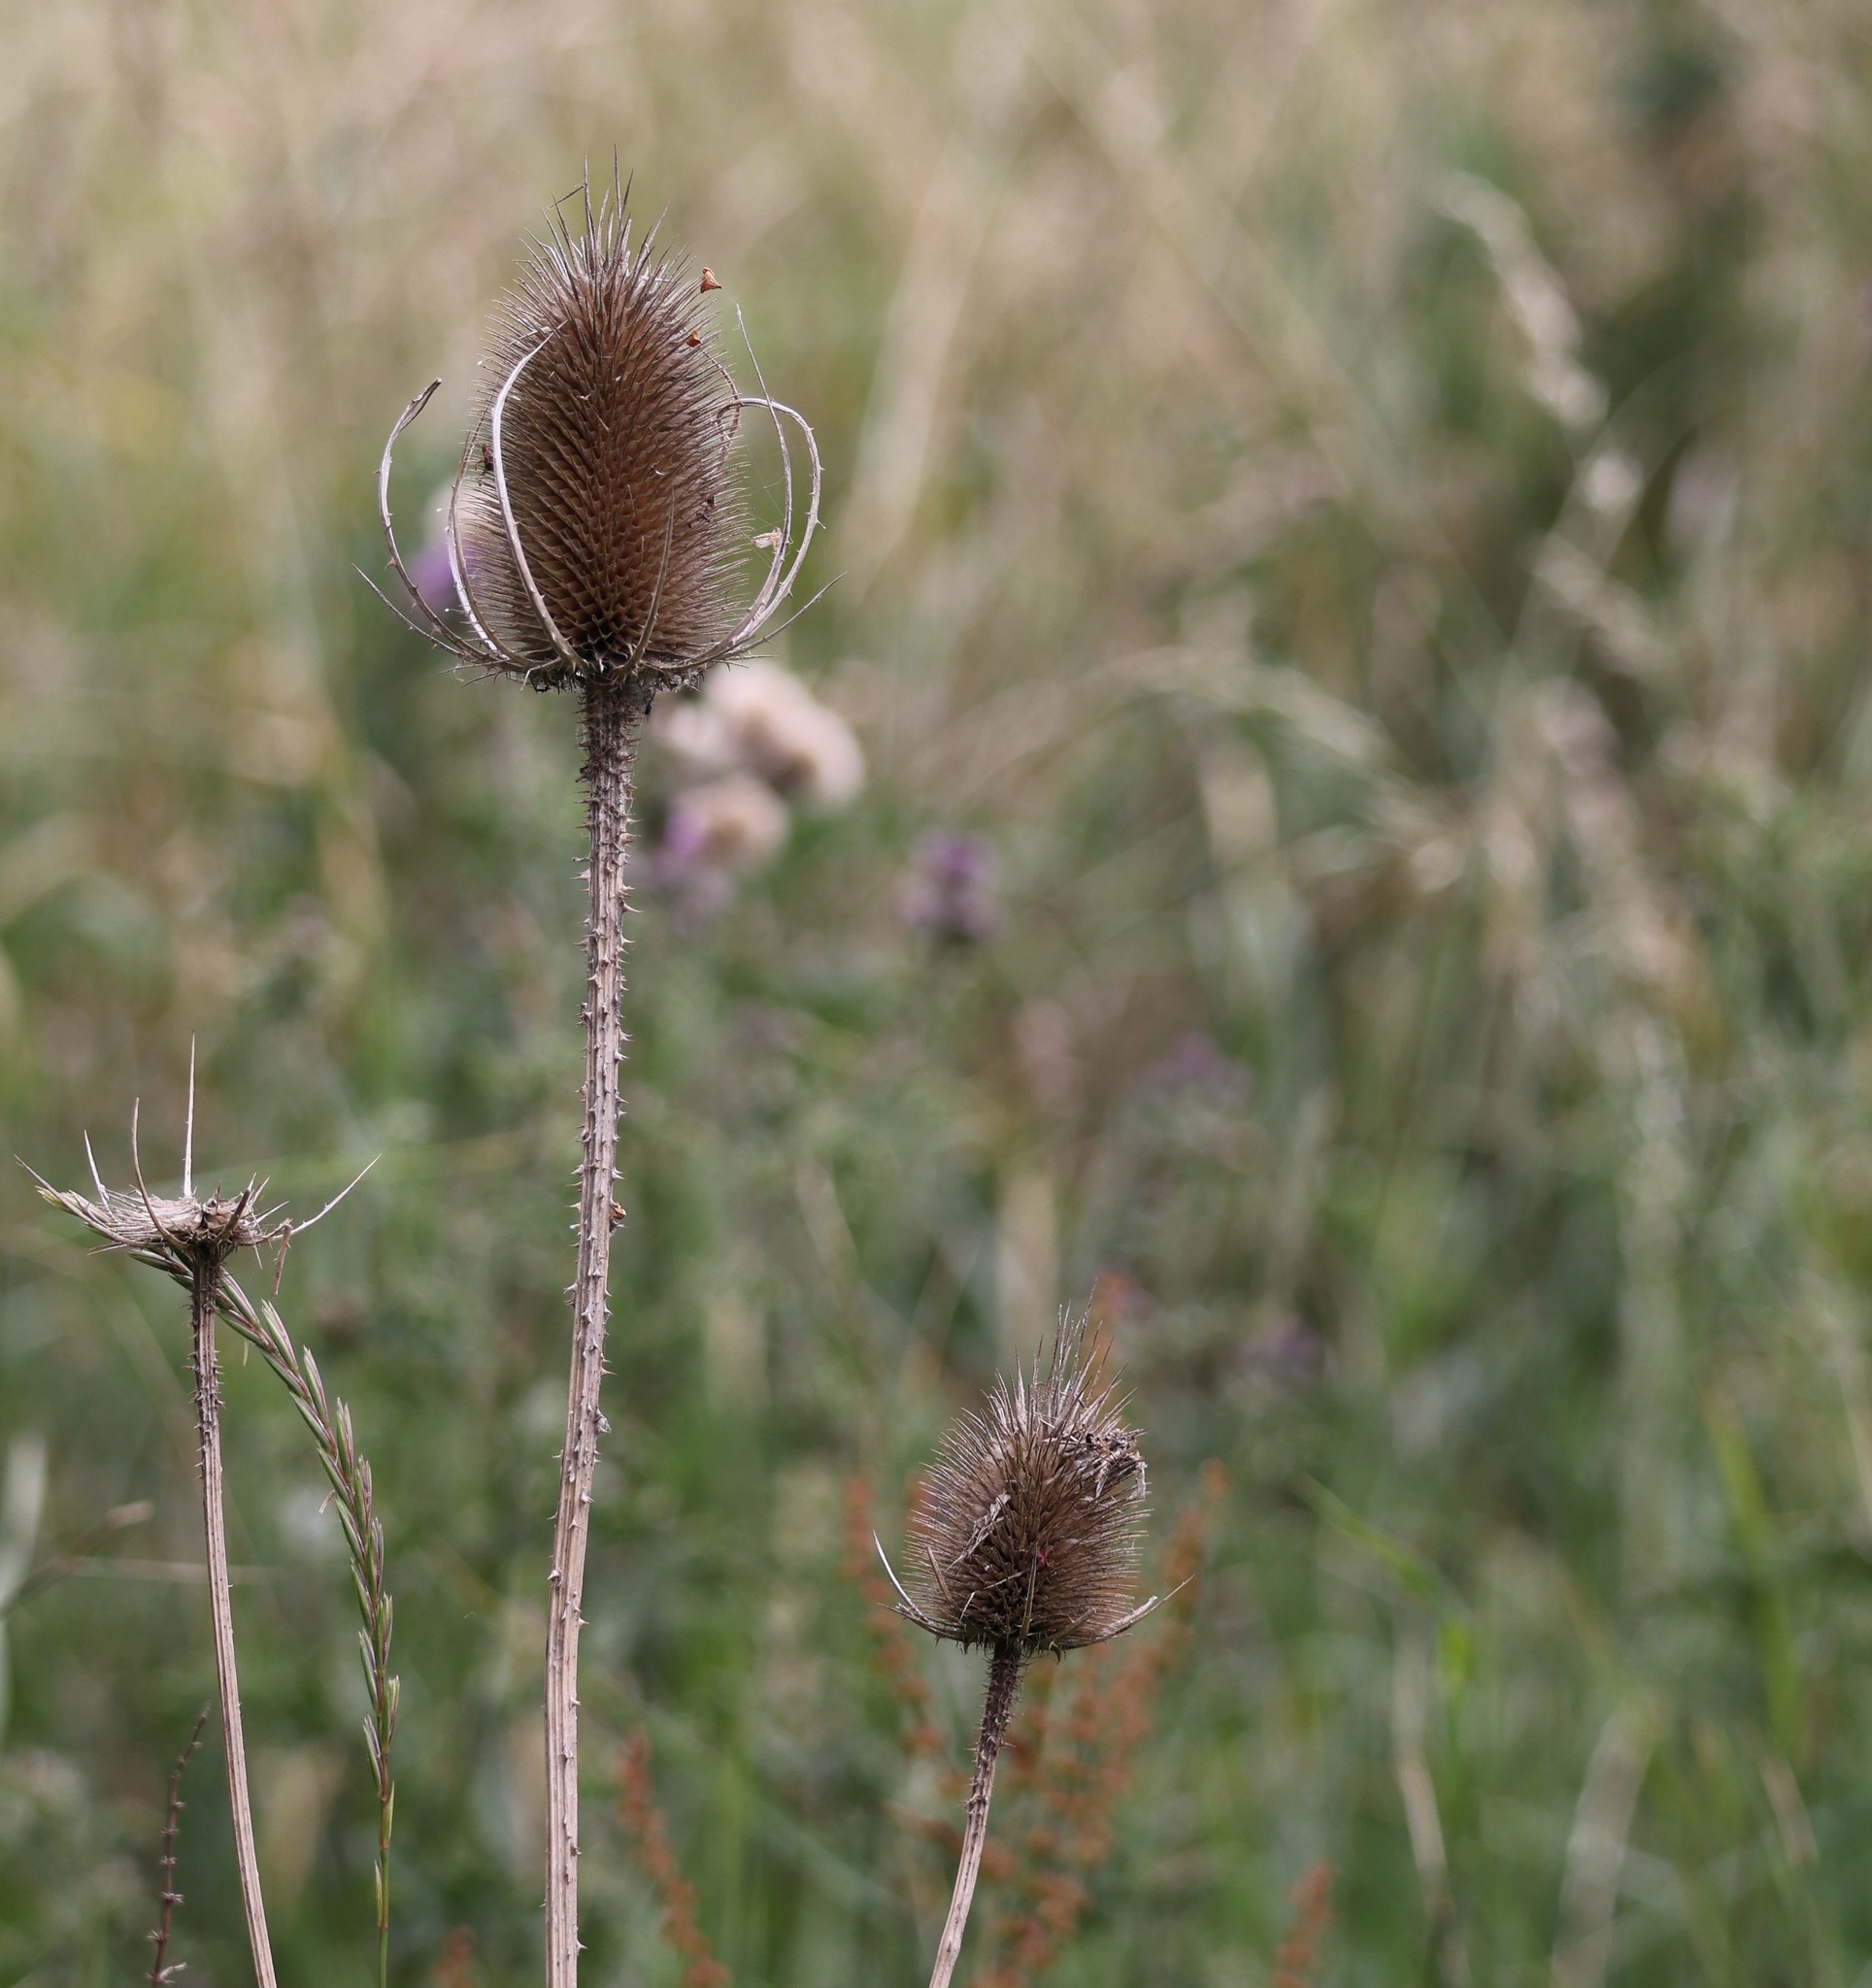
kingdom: Plantae
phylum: Tracheophyta
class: Magnoliopsida
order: Dipsacales
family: Caprifoliaceae
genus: Dipsacus
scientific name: Dipsacus fullonum
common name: Teasel
